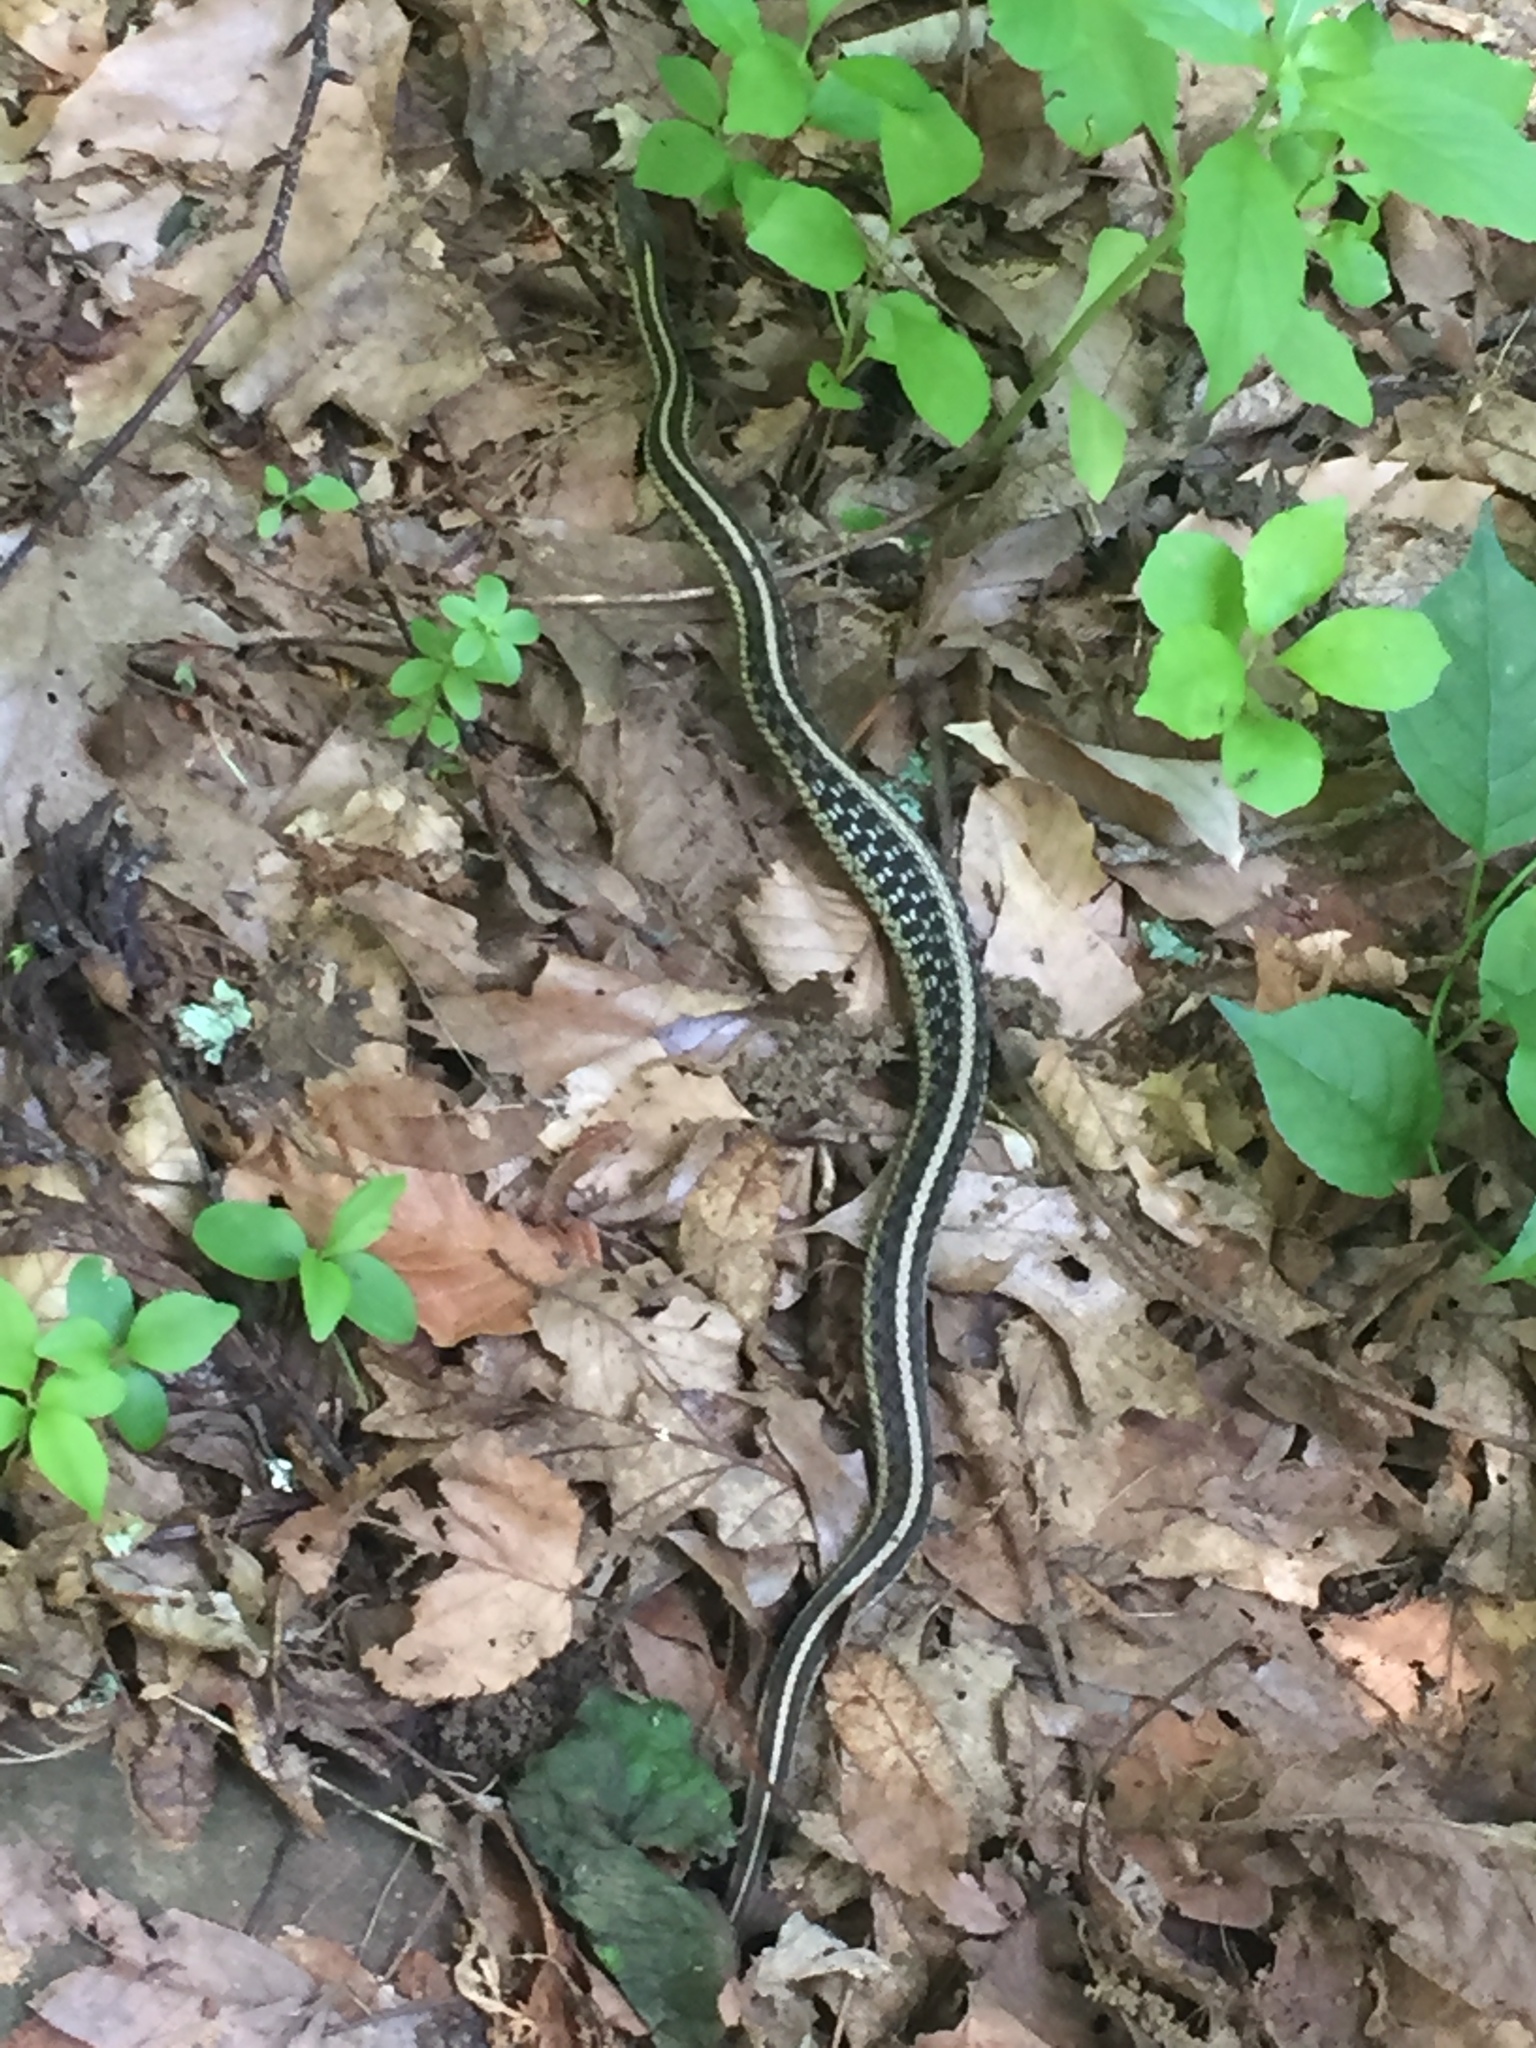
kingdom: Animalia
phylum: Chordata
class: Squamata
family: Colubridae
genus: Thamnophis
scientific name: Thamnophis sirtalis
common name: Common garter snake
